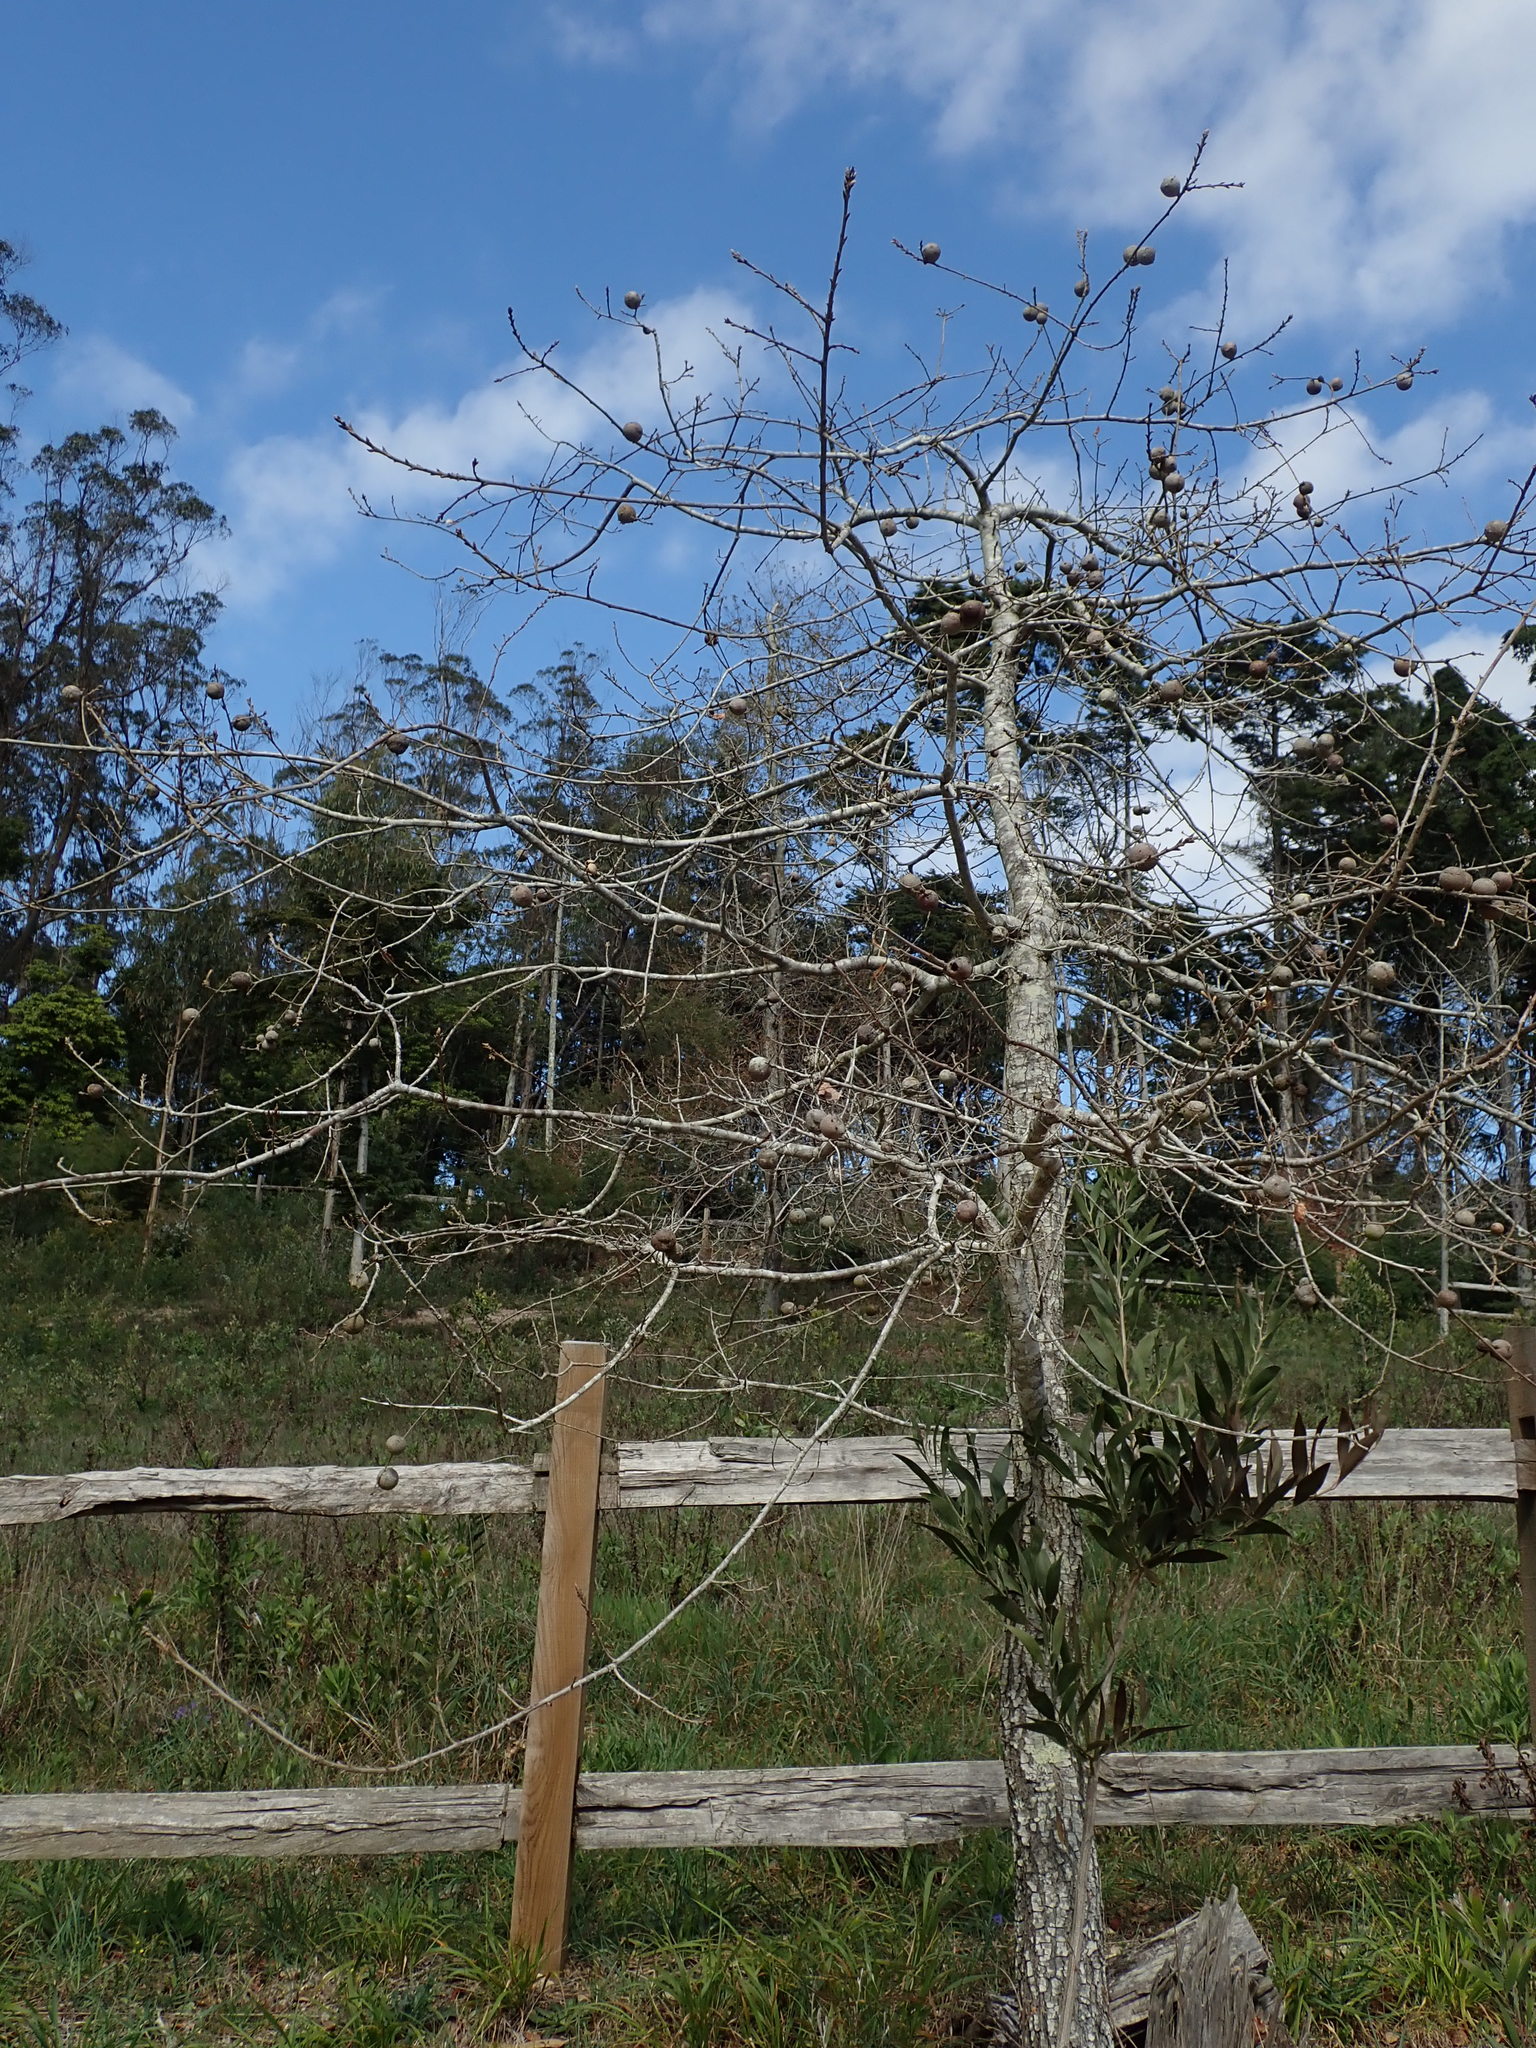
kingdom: Animalia
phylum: Arthropoda
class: Insecta
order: Hymenoptera
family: Cynipidae
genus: Andricus
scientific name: Andricus quercustozae
